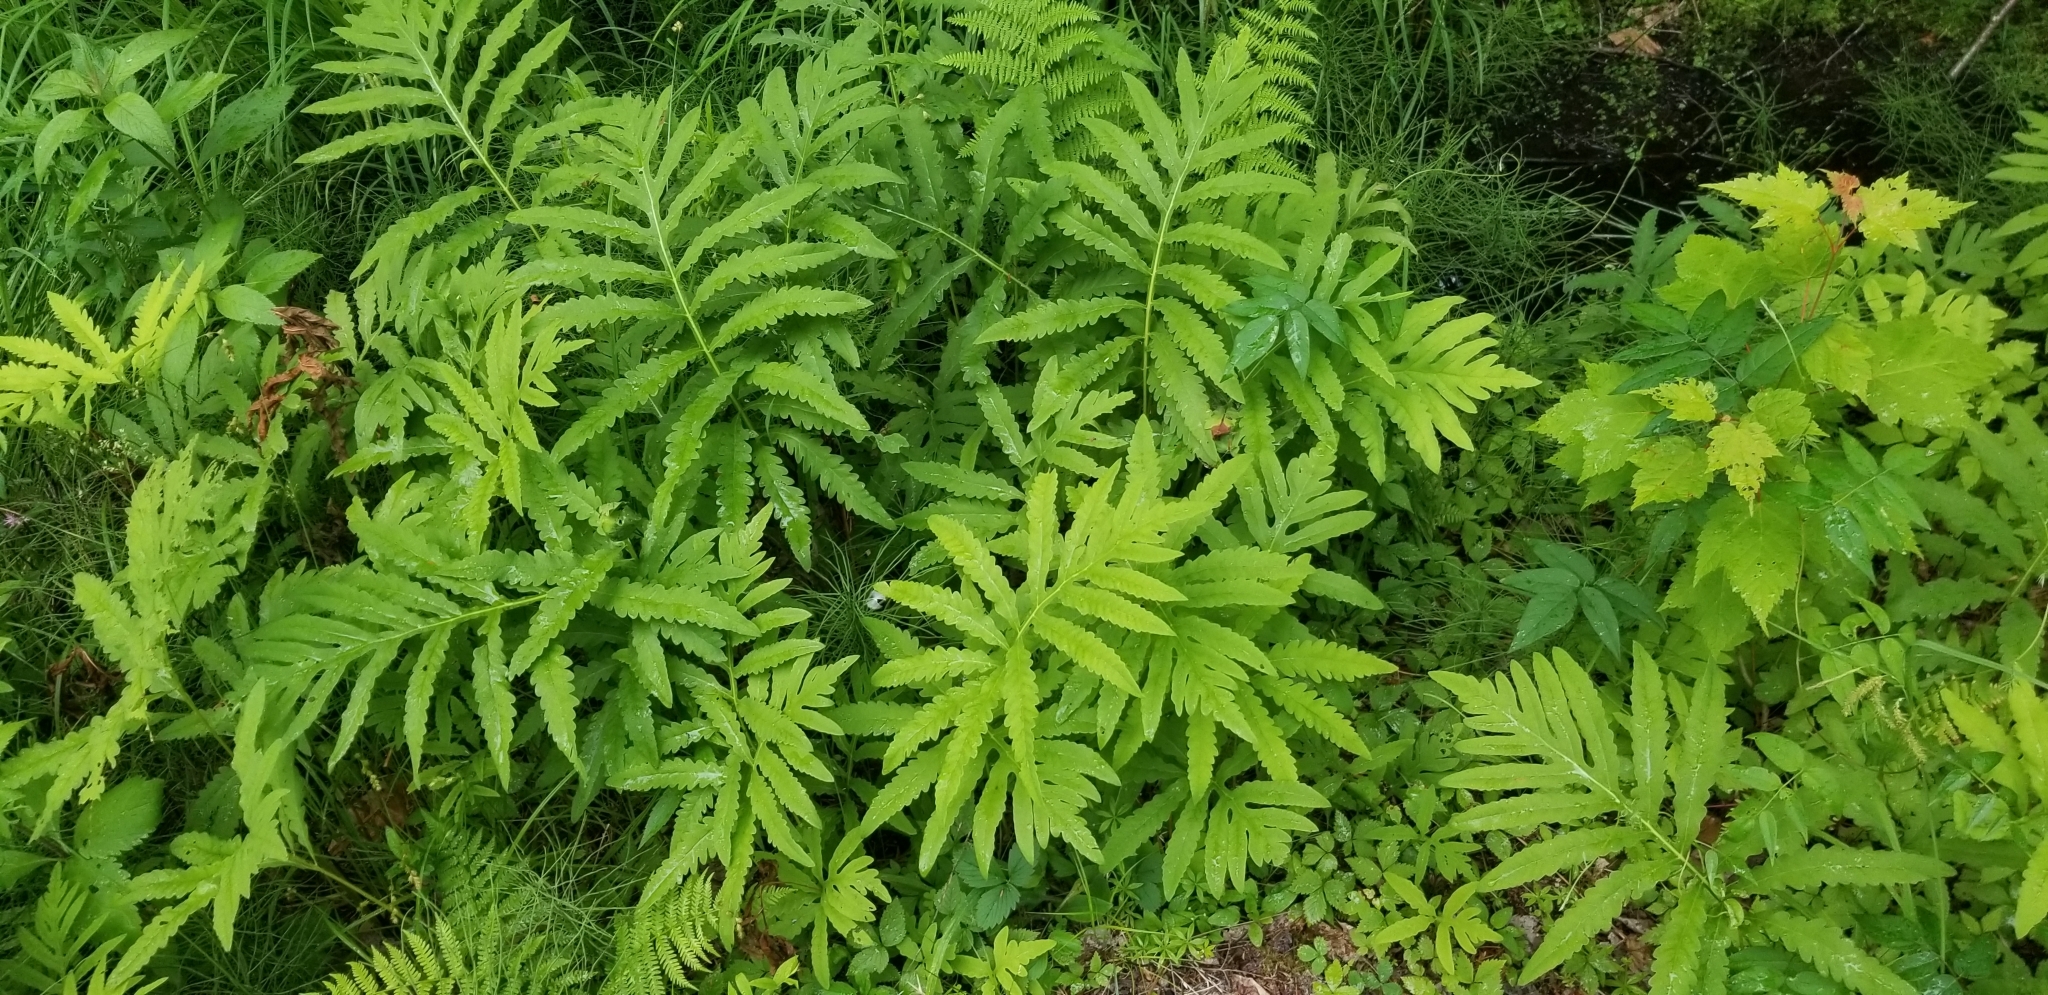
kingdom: Plantae
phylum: Tracheophyta
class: Polypodiopsida
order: Polypodiales
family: Onocleaceae
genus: Onoclea
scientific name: Onoclea sensibilis
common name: Sensitive fern
